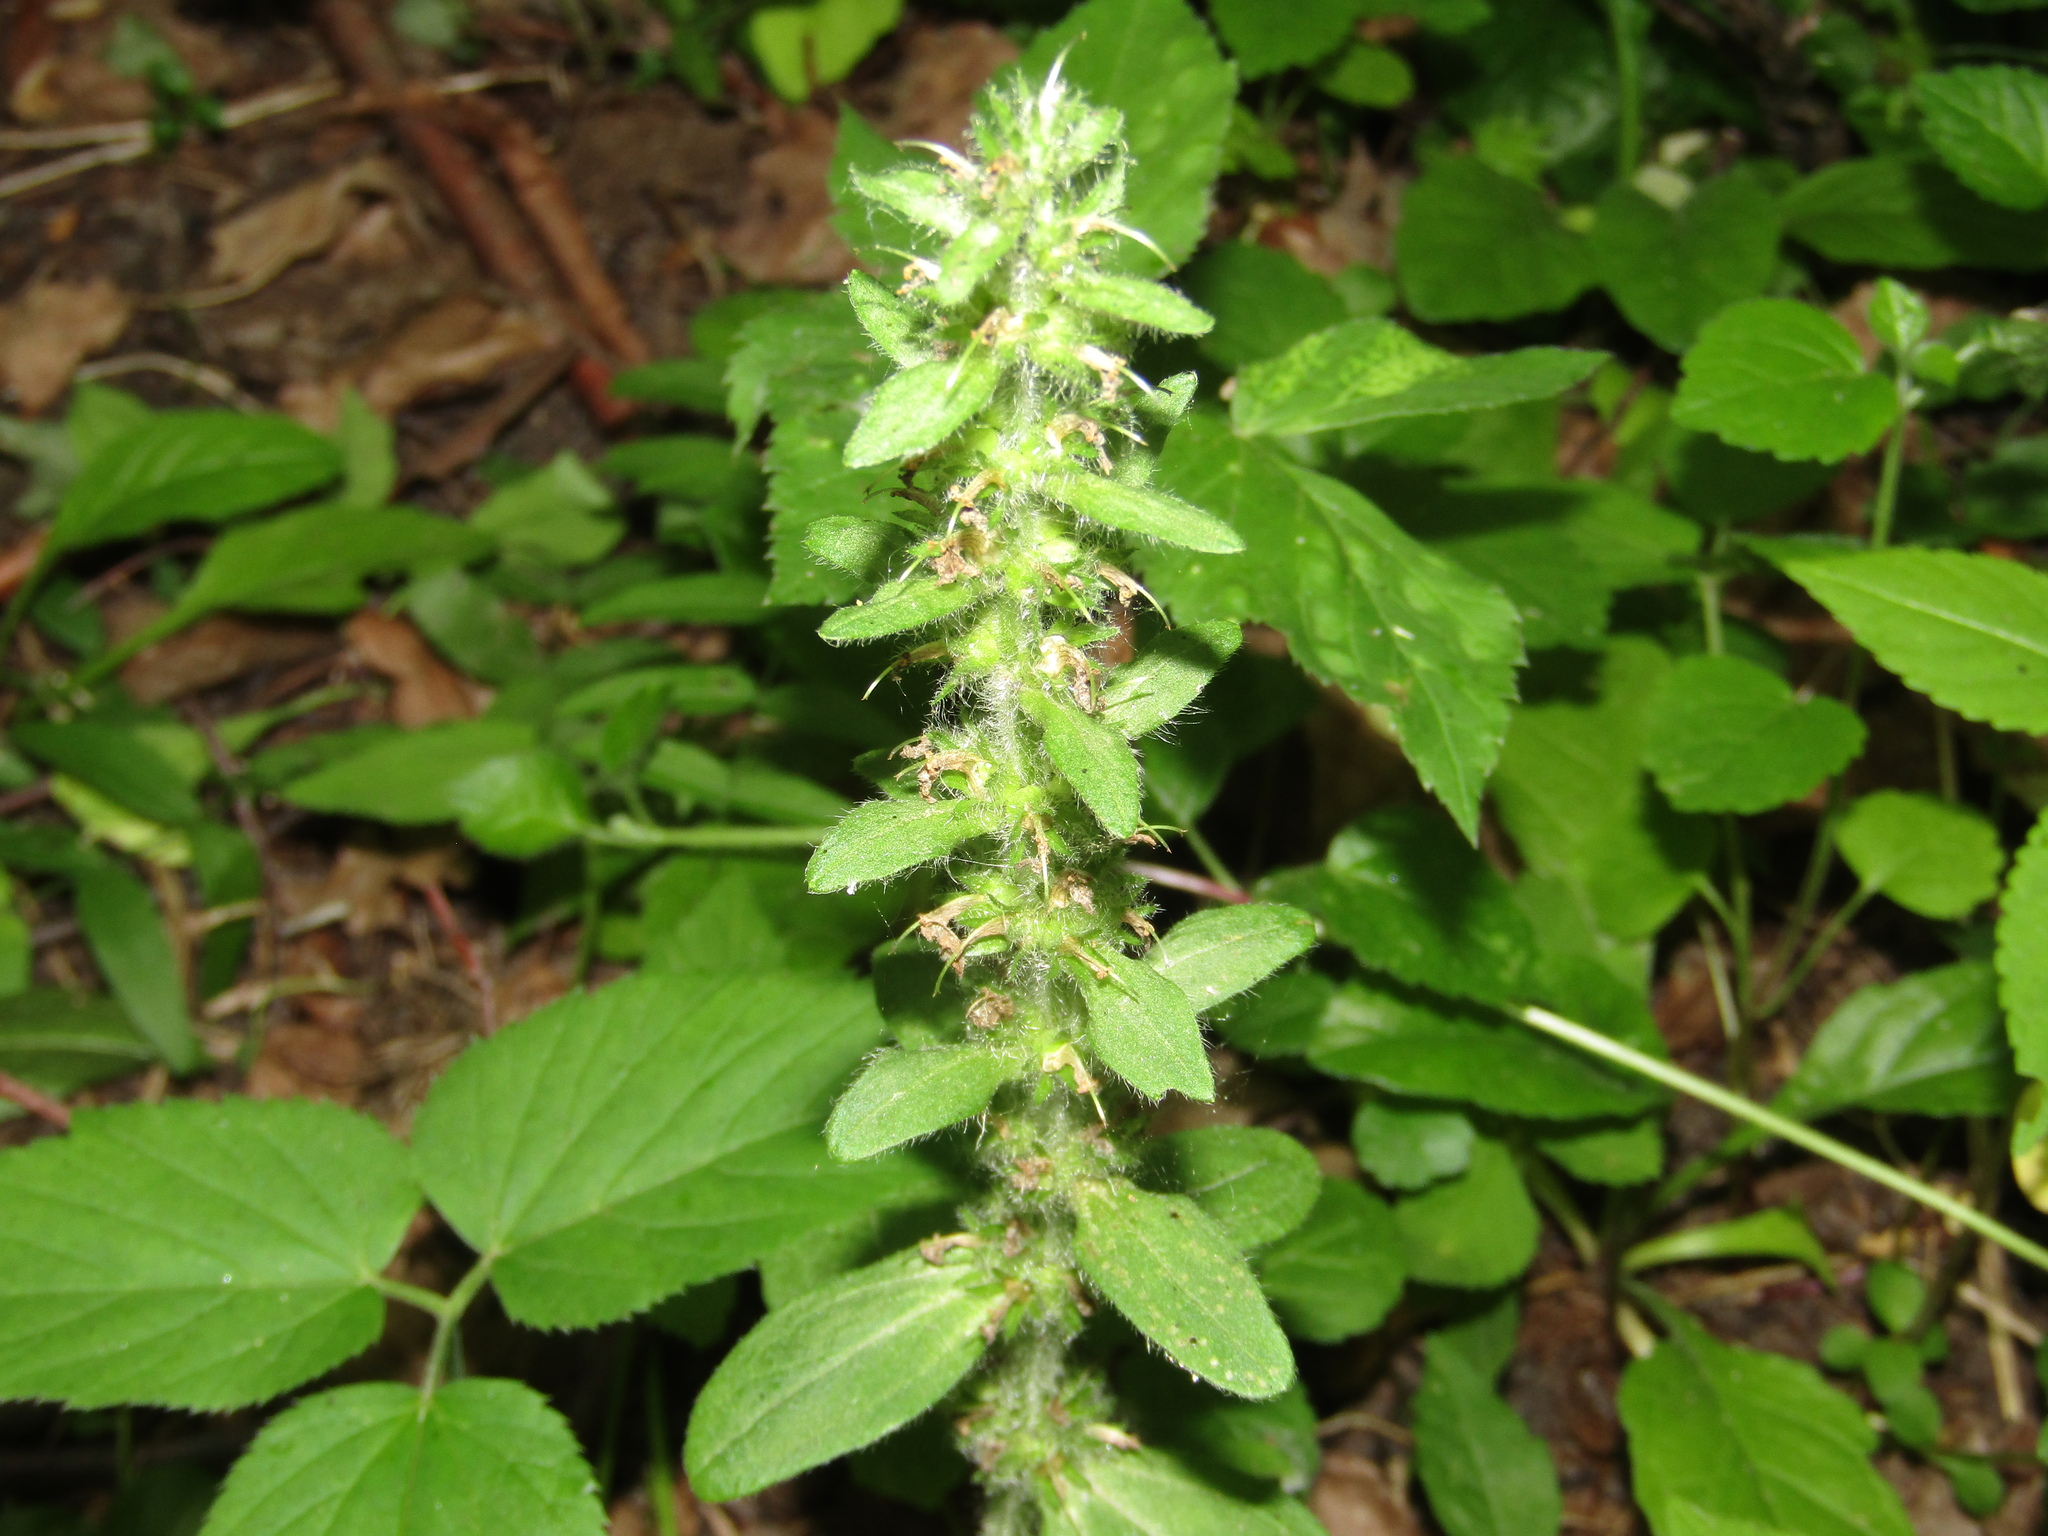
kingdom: Plantae
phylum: Tracheophyta
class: Magnoliopsida
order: Lamiales
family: Lamiaceae
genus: Ajuga
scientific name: Ajuga reptans
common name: Bugle
